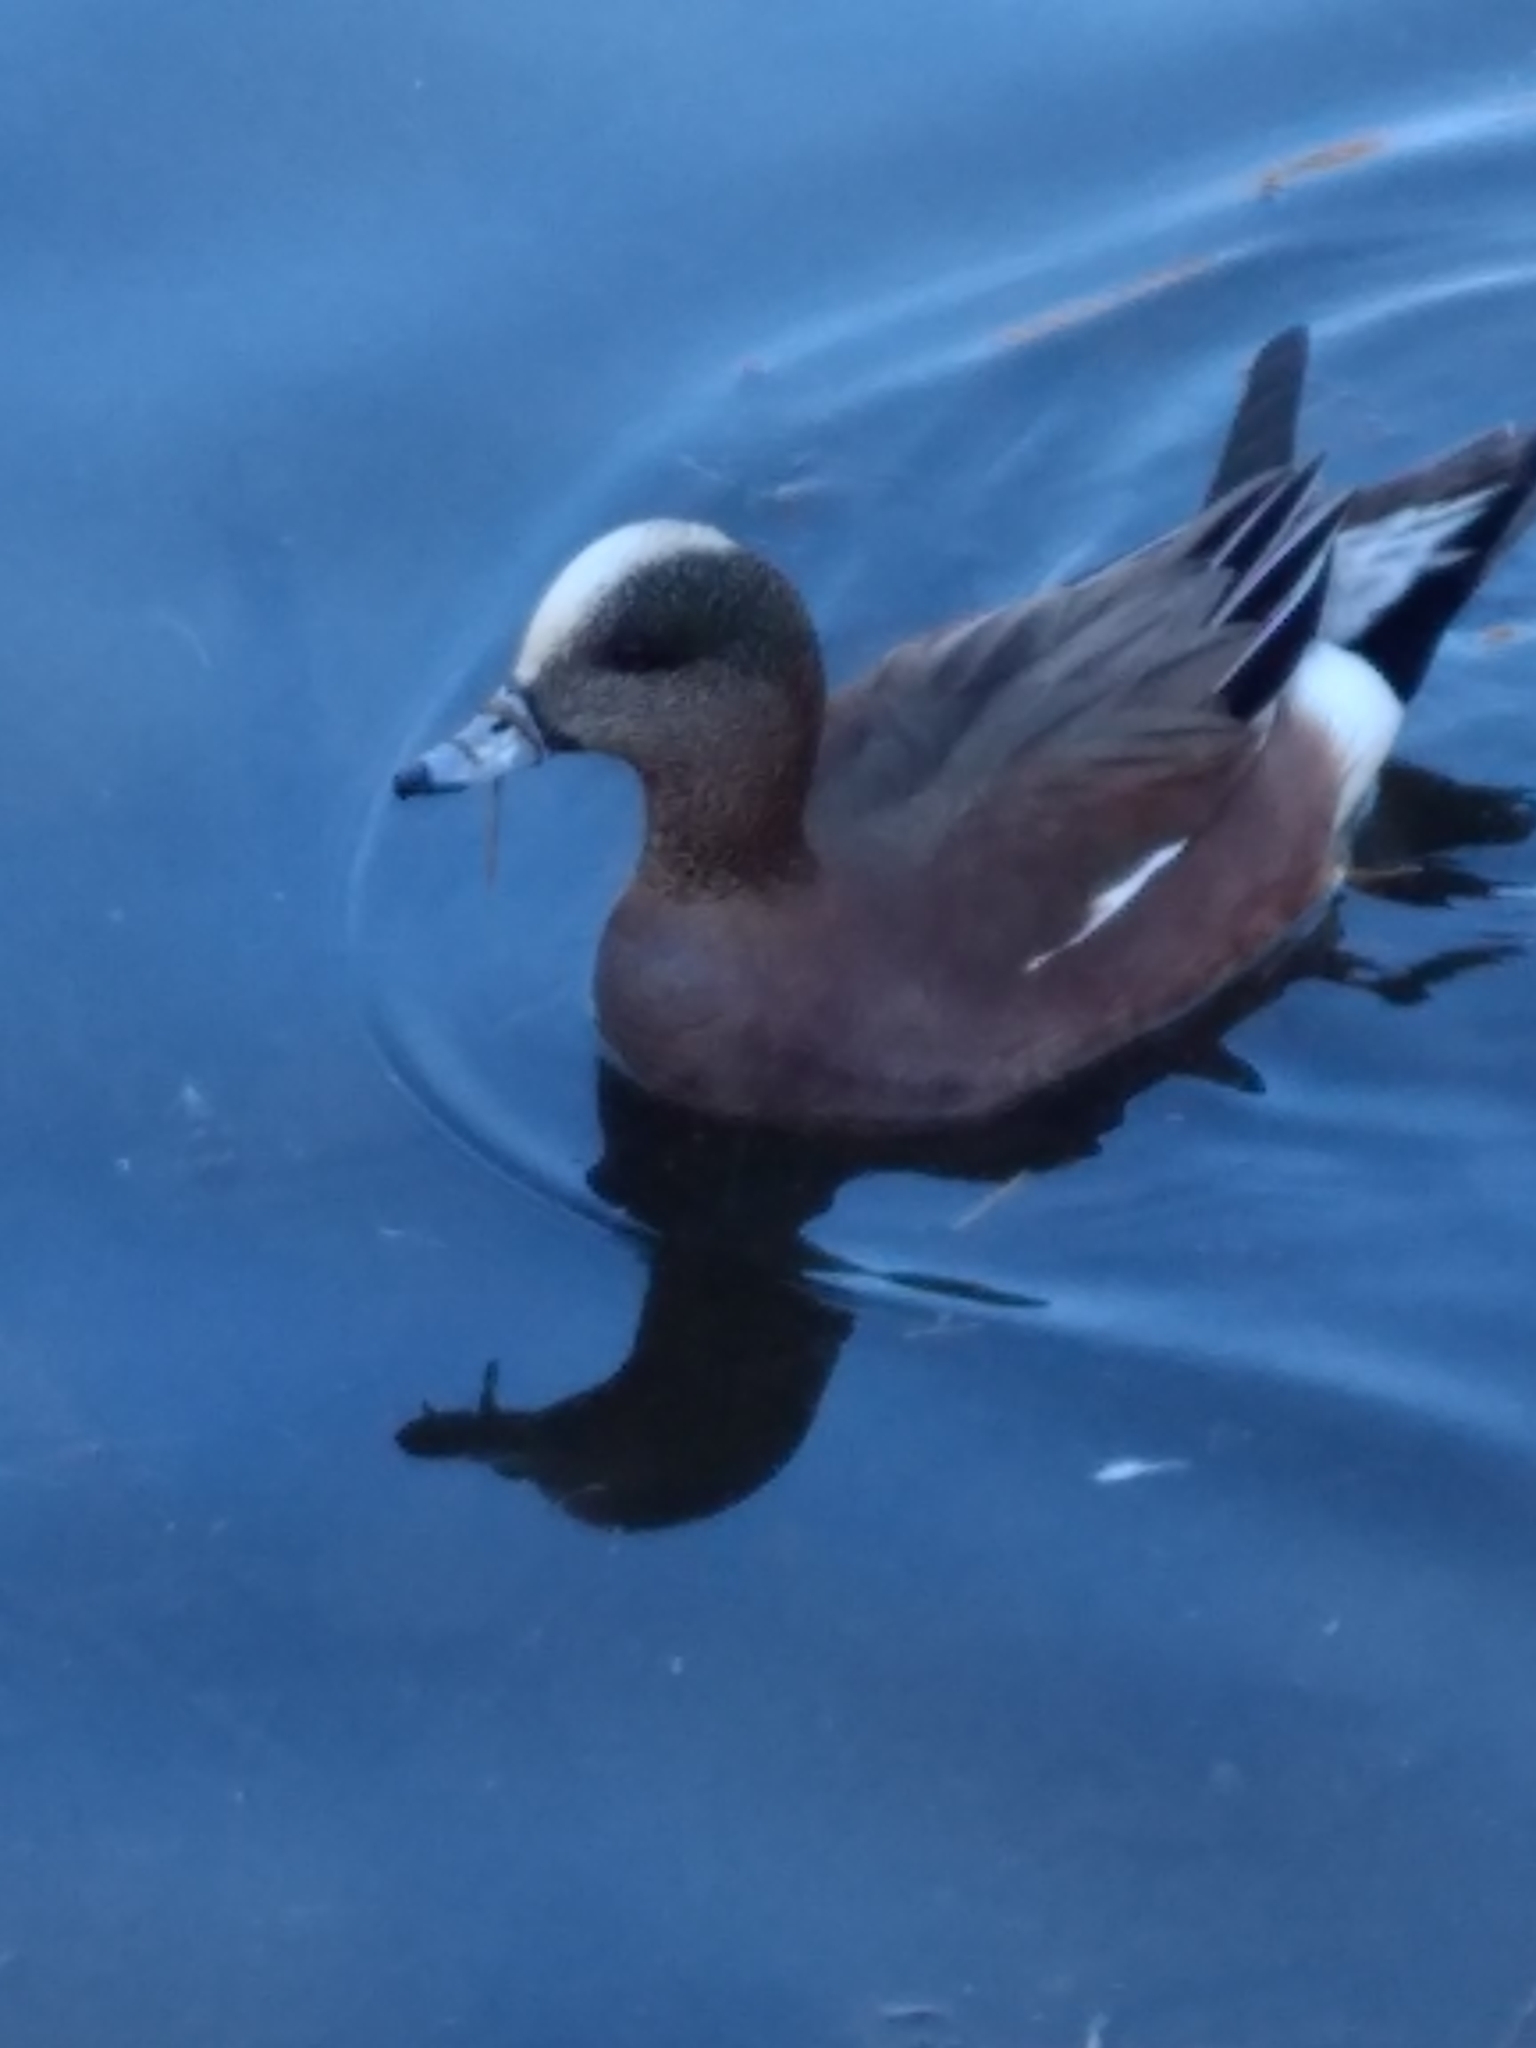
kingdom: Animalia
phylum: Chordata
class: Aves
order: Anseriformes
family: Anatidae
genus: Mareca
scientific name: Mareca americana
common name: American wigeon
